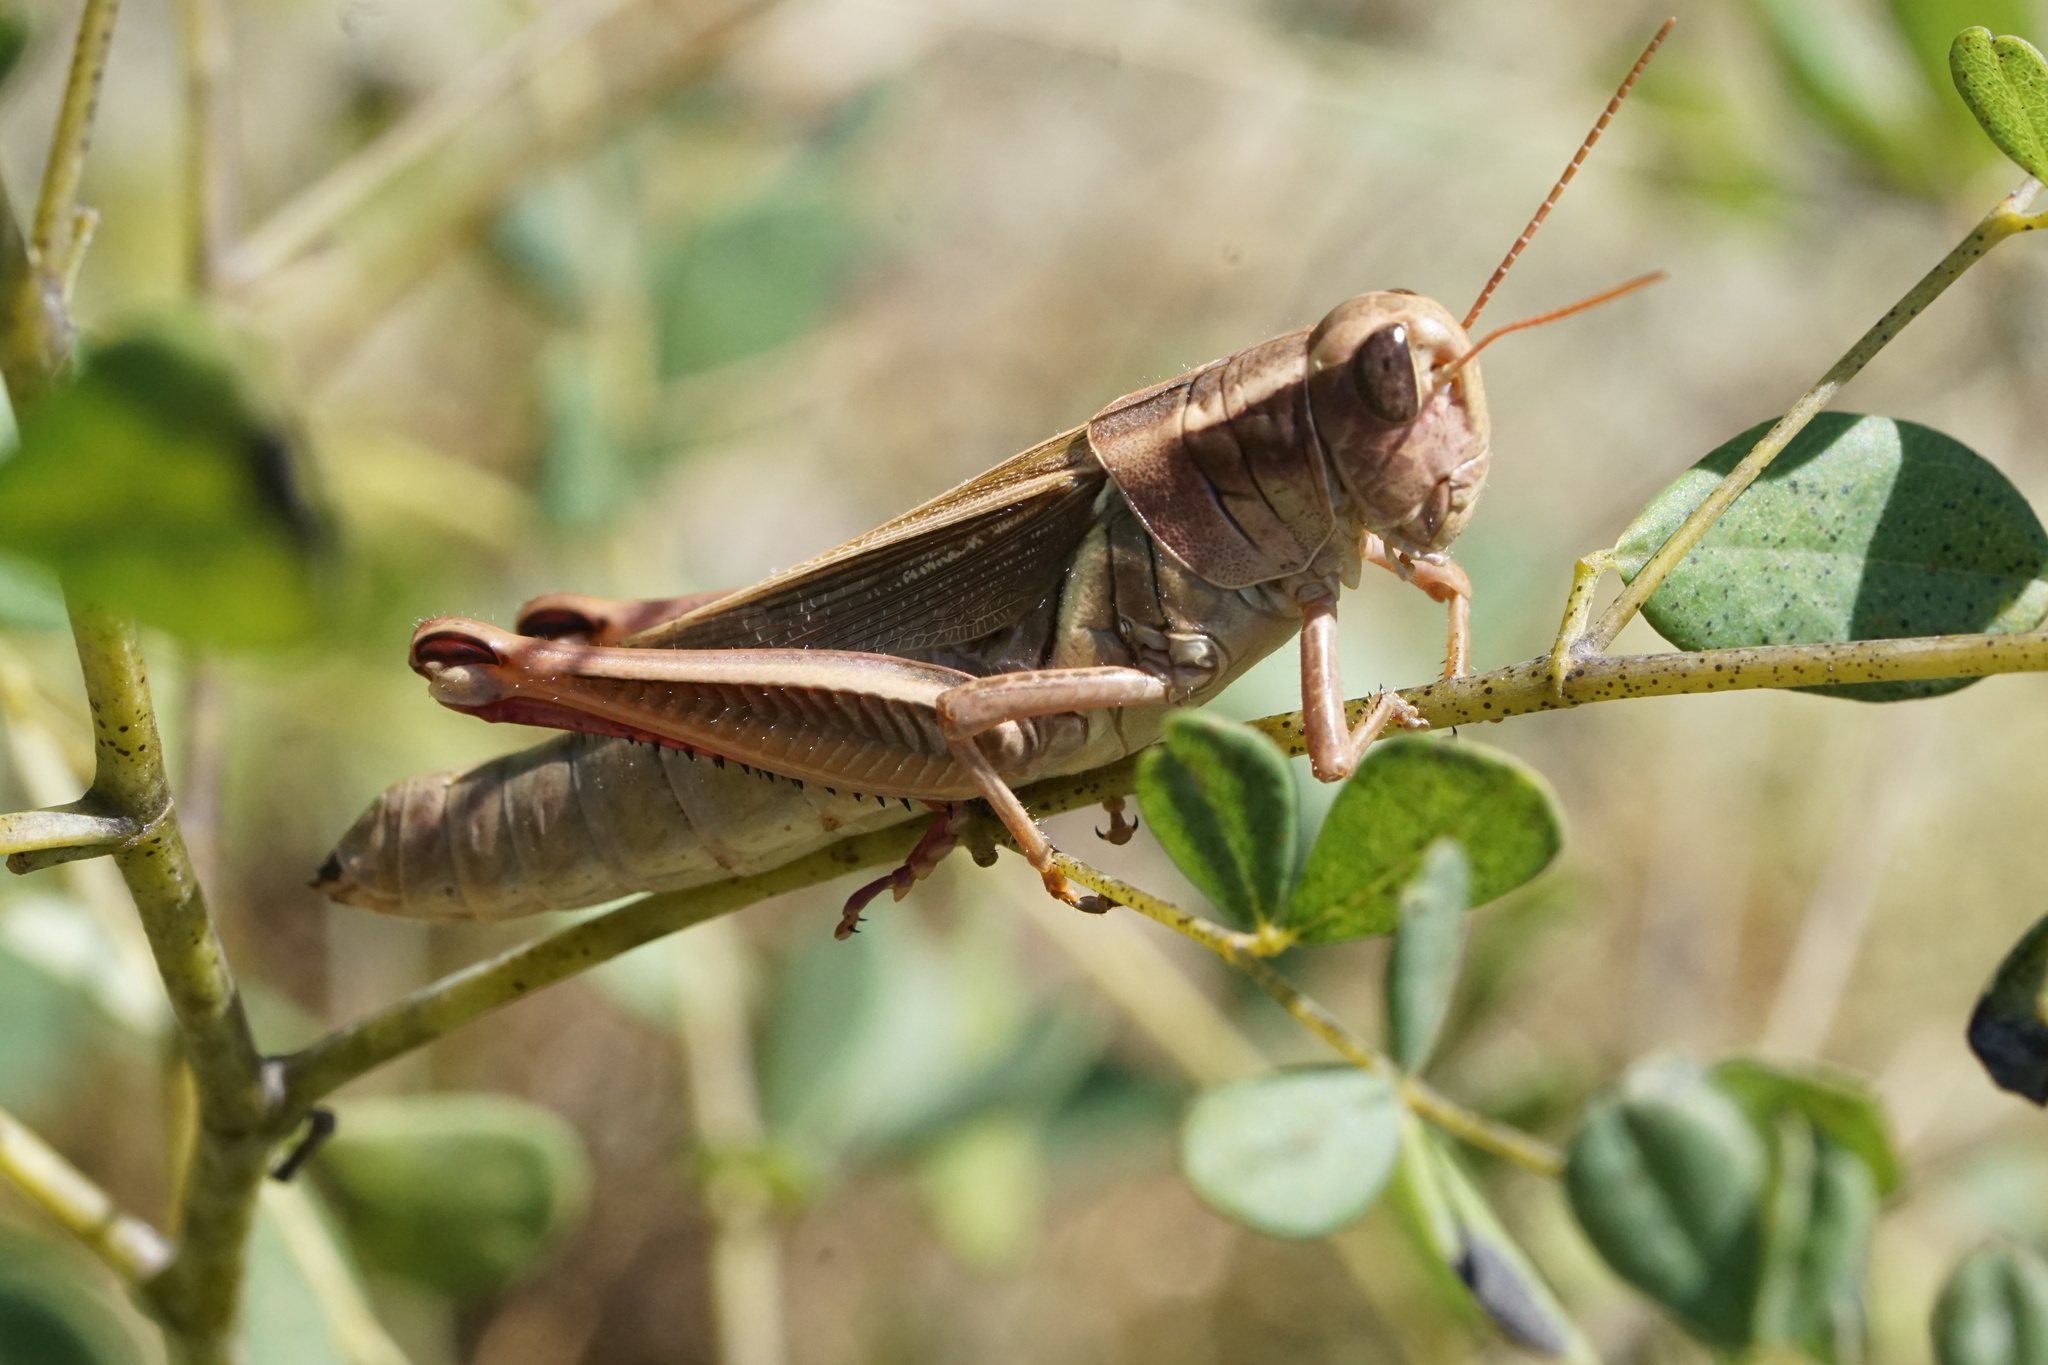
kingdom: Animalia
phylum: Arthropoda
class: Insecta
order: Orthoptera
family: Acrididae
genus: Melanoplus
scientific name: Melanoplus bivittatus
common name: Two-striped grasshopper
